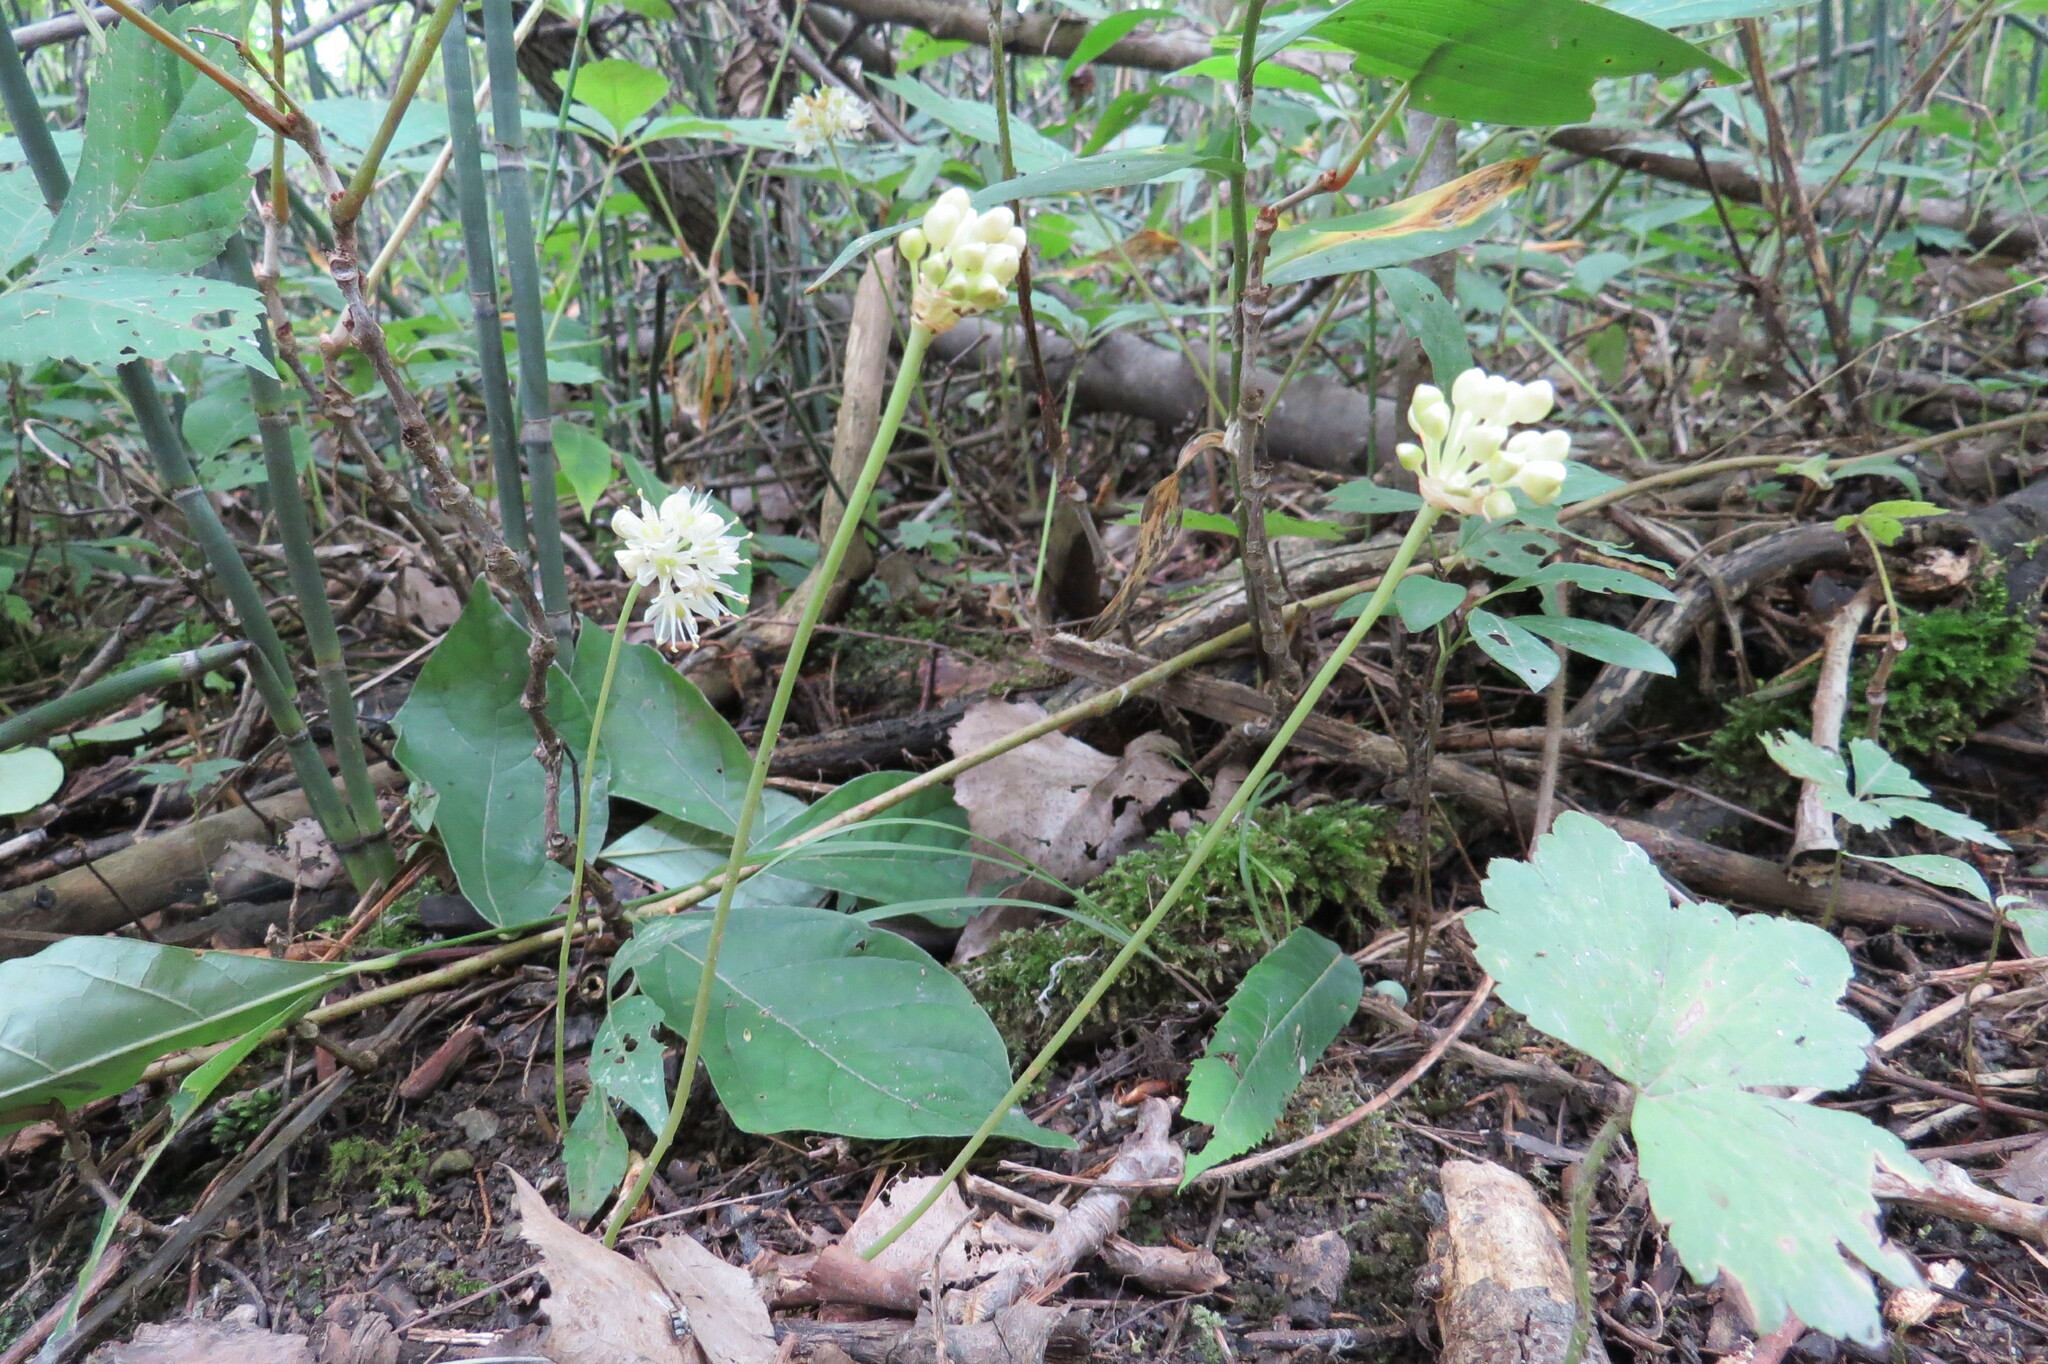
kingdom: Plantae
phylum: Tracheophyta
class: Liliopsida
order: Asparagales
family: Amaryllidaceae
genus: Allium
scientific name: Allium tricoccum
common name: Ramp
